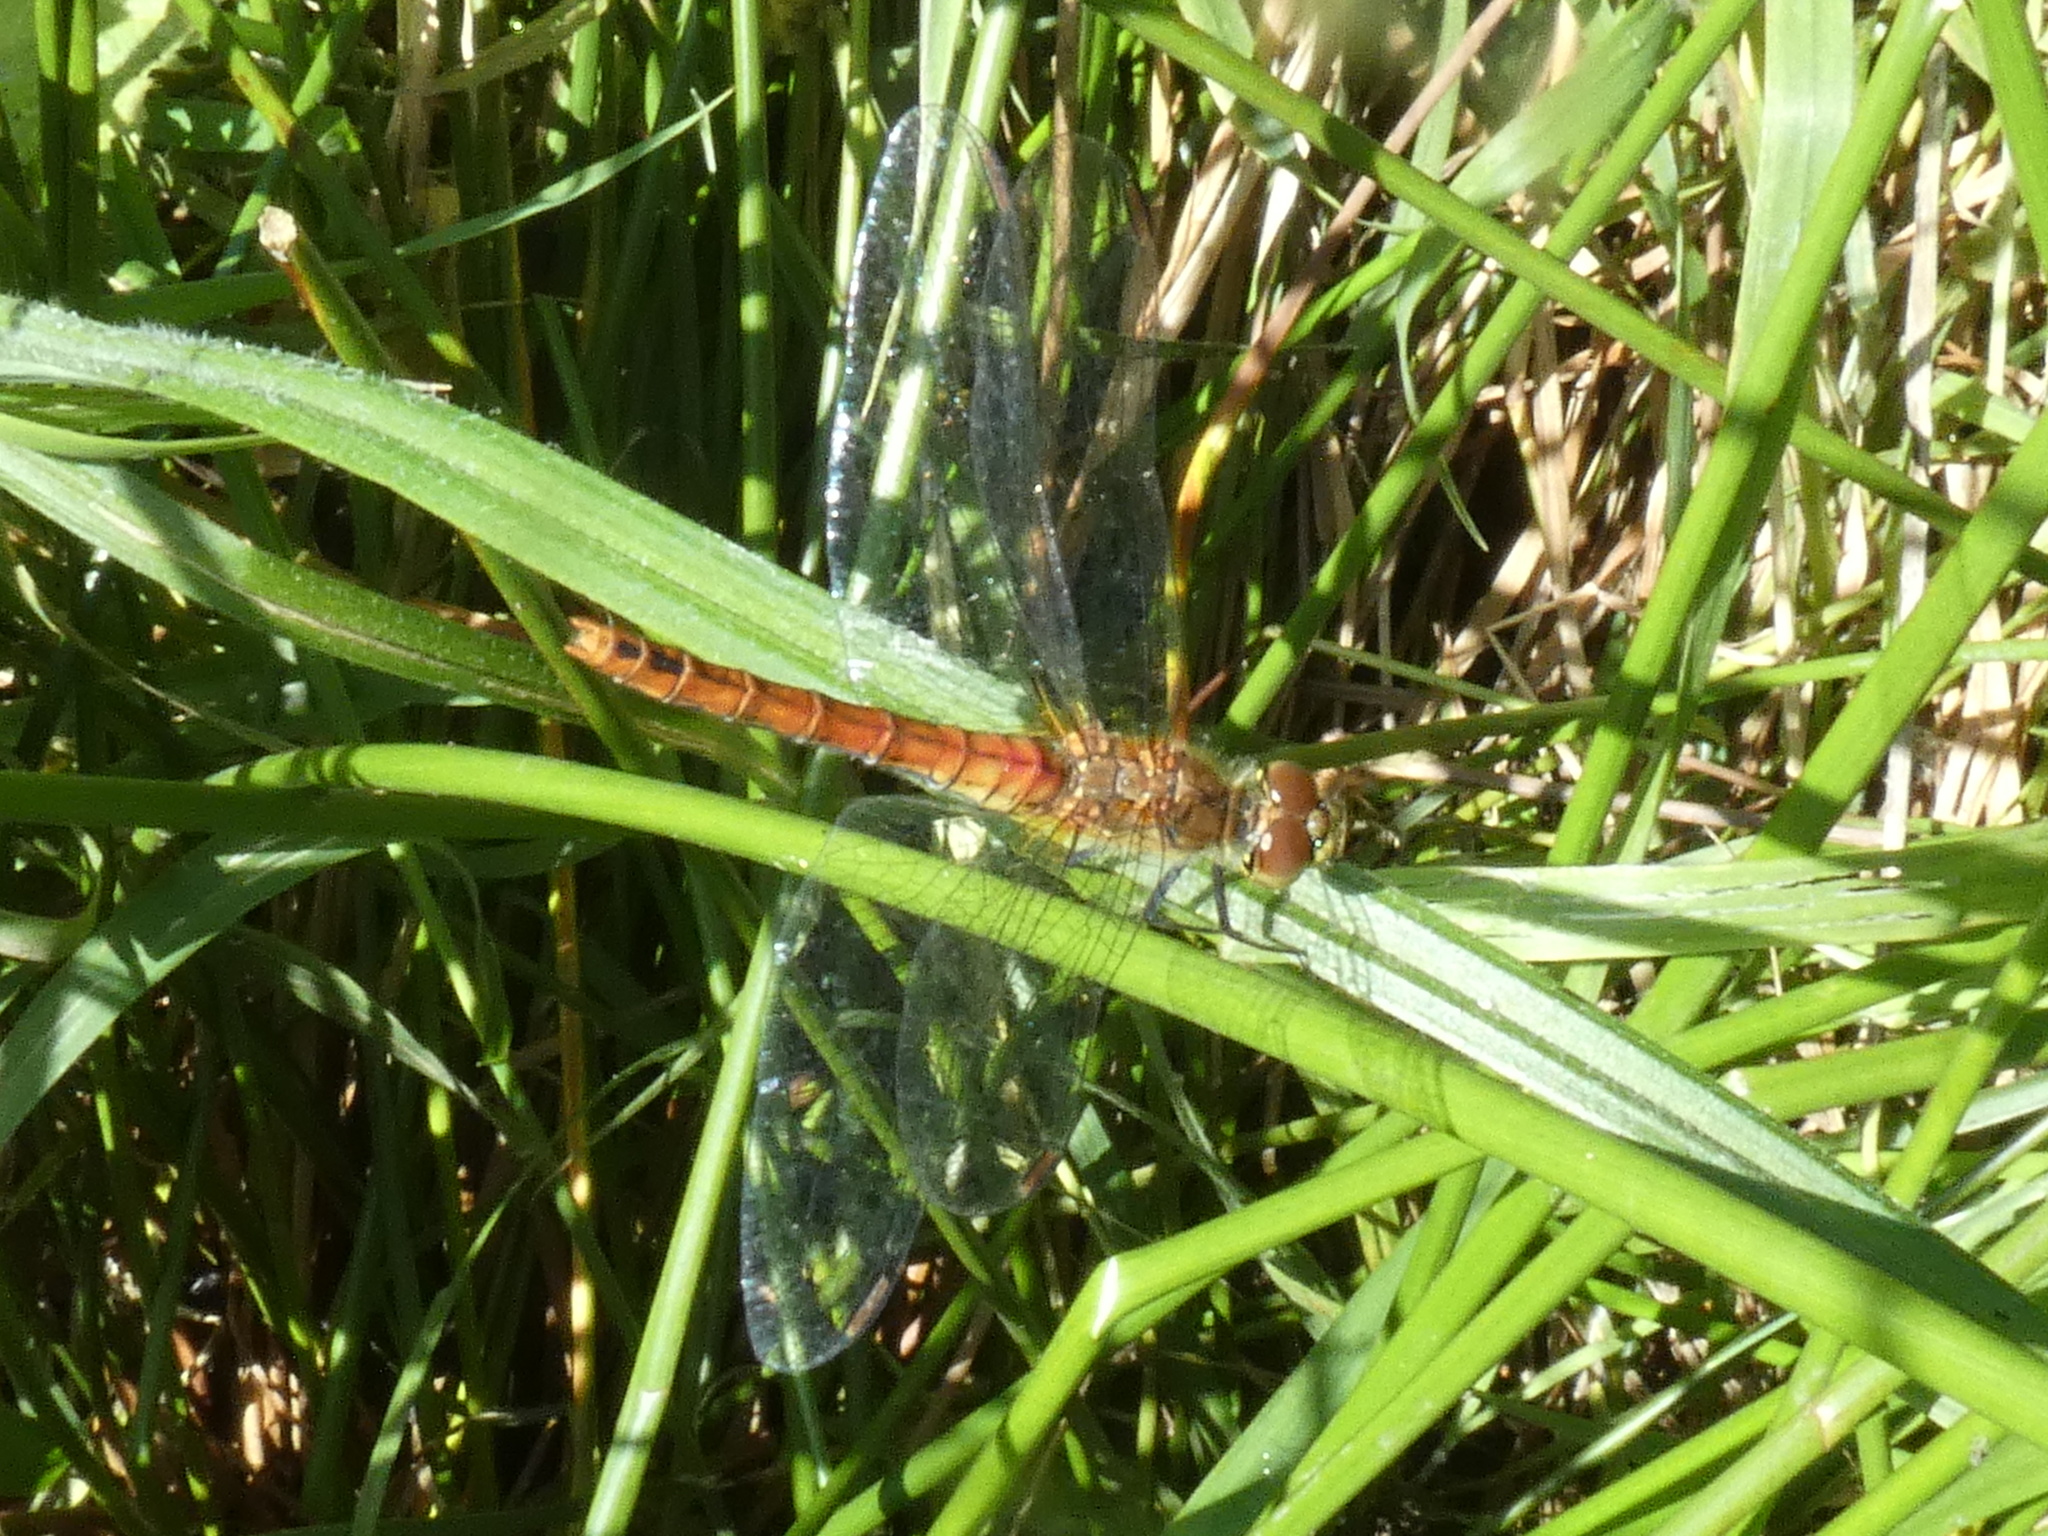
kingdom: Animalia
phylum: Arthropoda
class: Insecta
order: Odonata
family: Libellulidae
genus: Sympetrum
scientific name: Sympetrum sanguineum
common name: Ruddy darter
